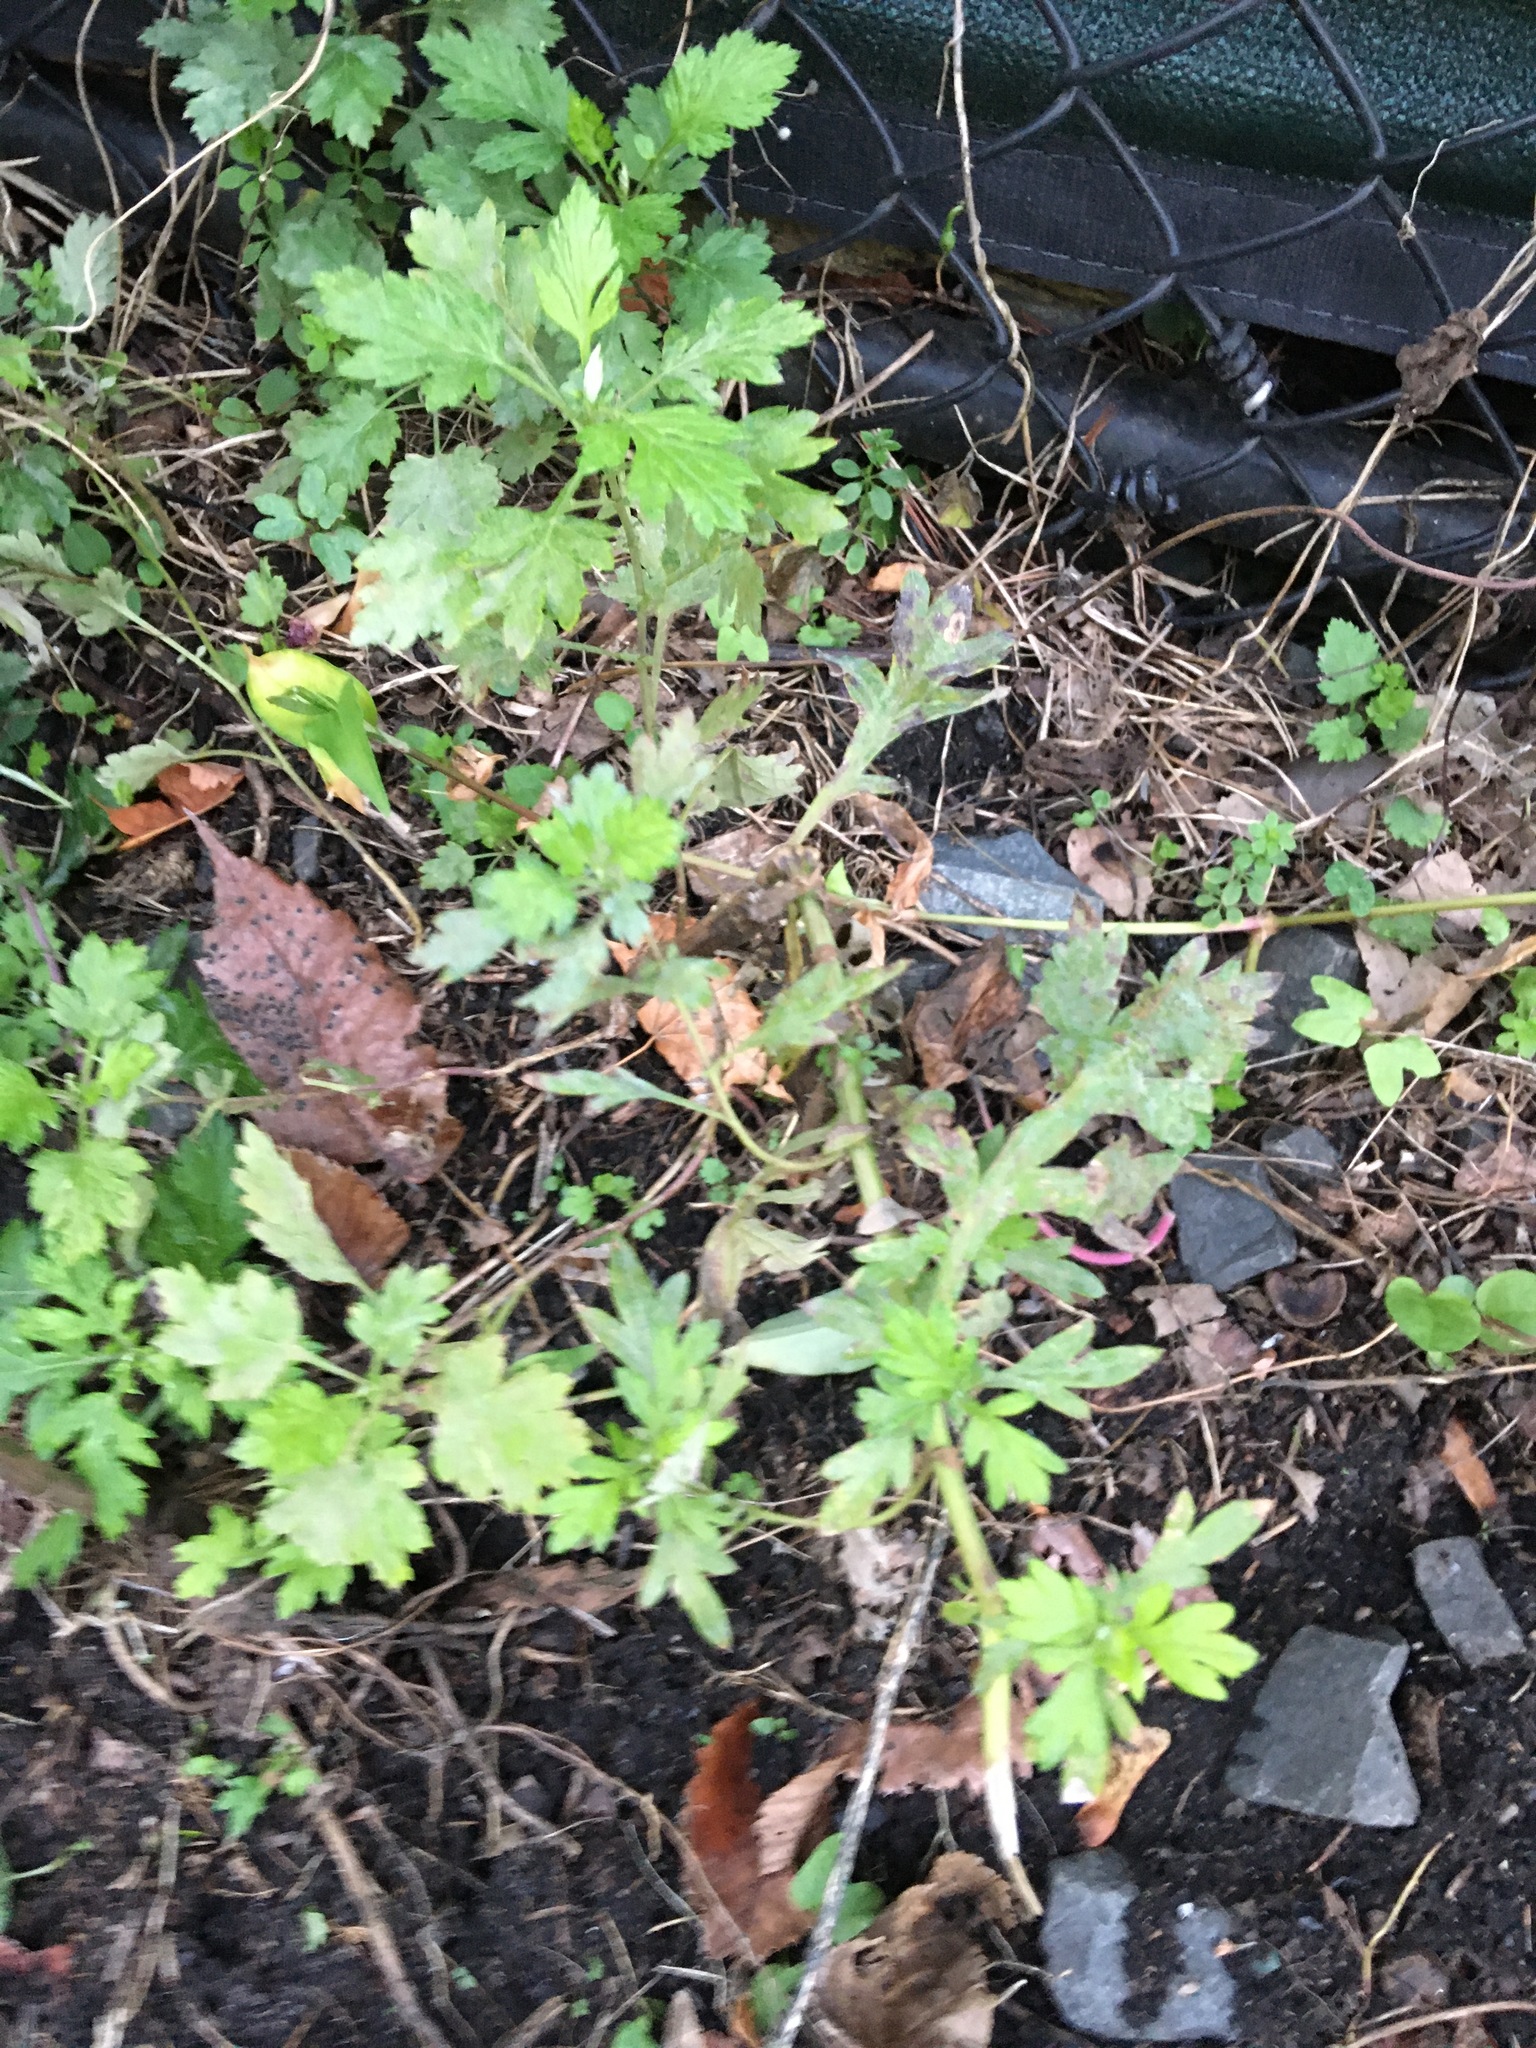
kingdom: Plantae
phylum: Tracheophyta
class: Magnoliopsida
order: Asterales
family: Asteraceae
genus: Artemisia
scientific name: Artemisia vulgaris
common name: Mugwort
